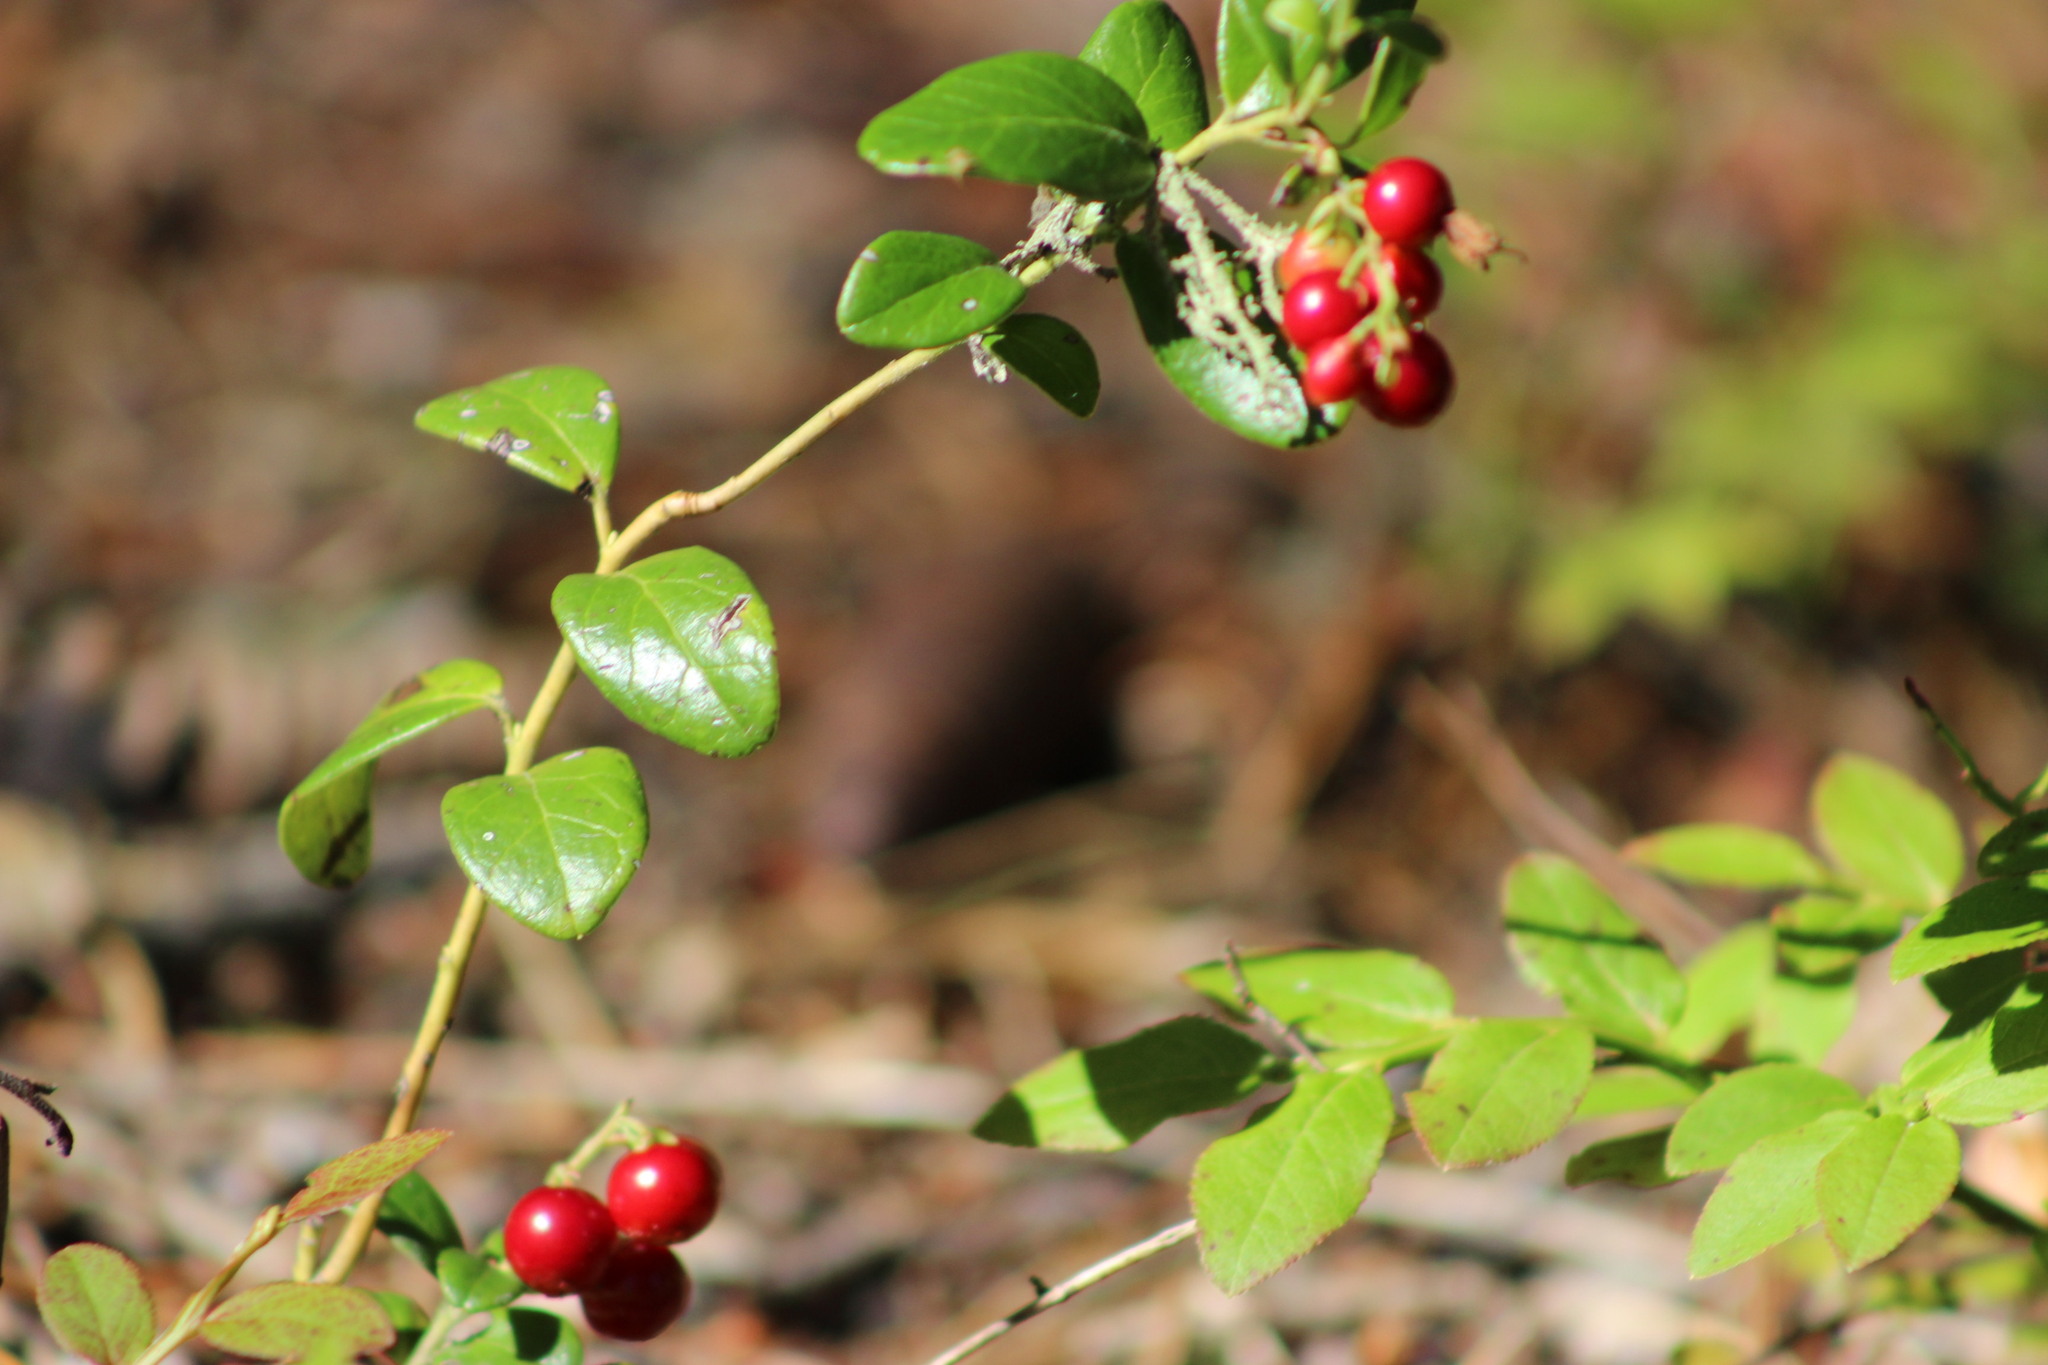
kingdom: Plantae
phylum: Tracheophyta
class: Magnoliopsida
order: Ericales
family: Ericaceae
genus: Vaccinium
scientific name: Vaccinium vitis-idaea
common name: Cowberry
